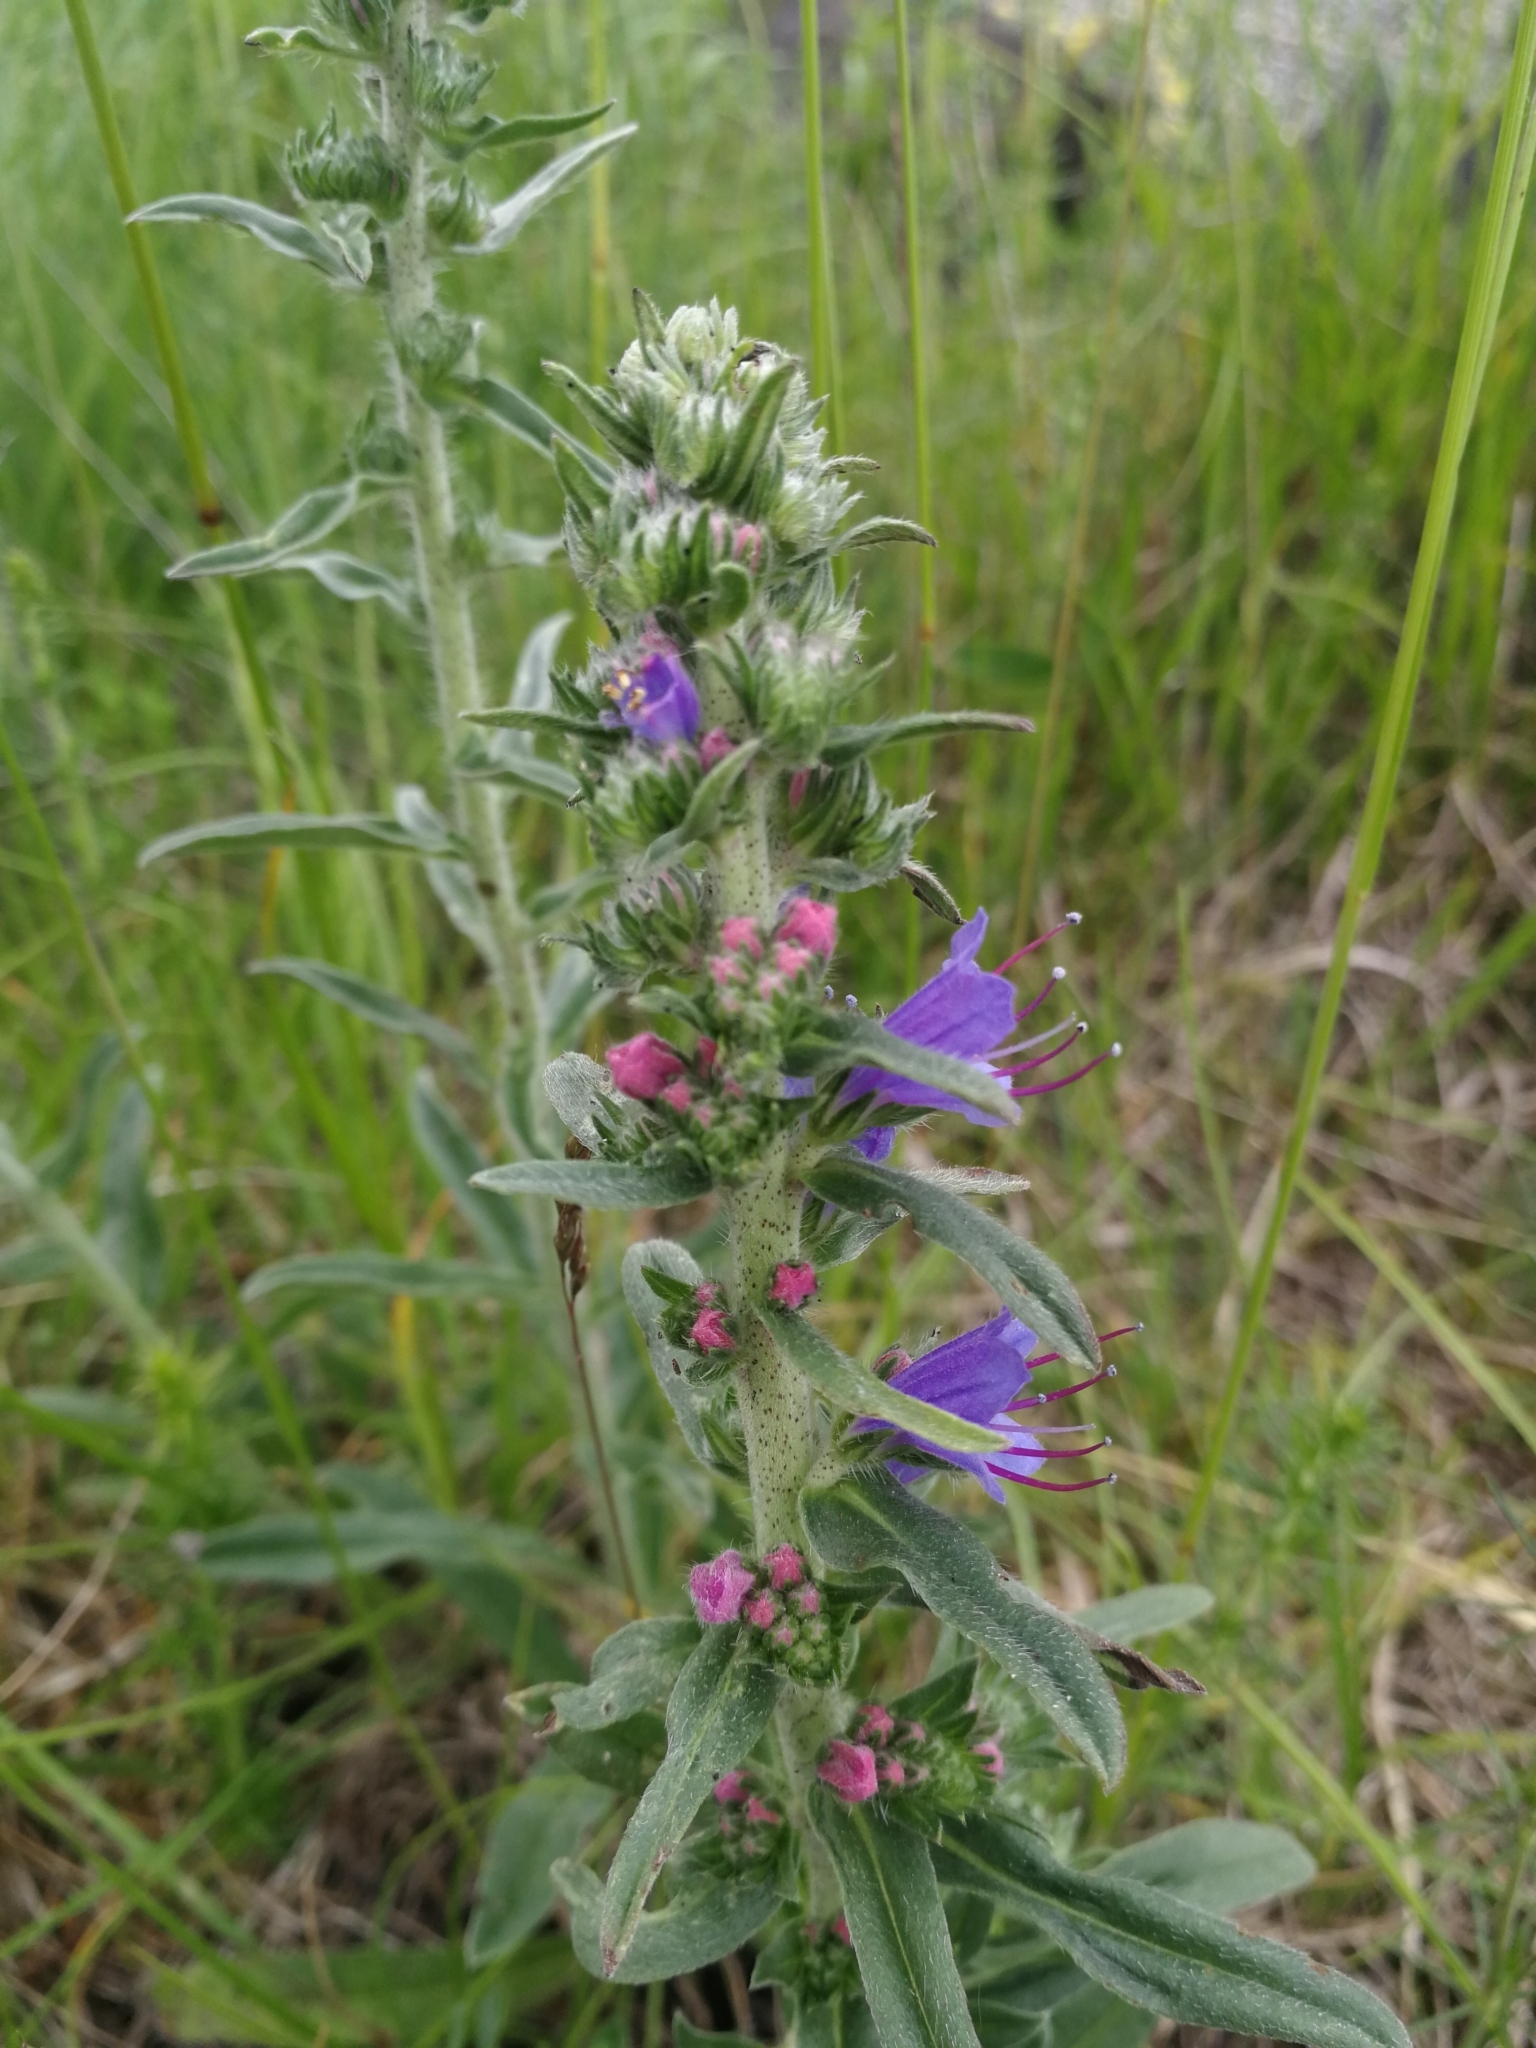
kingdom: Plantae
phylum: Tracheophyta
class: Magnoliopsida
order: Boraginales
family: Boraginaceae
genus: Echium
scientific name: Echium vulgare
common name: Common viper's bugloss
